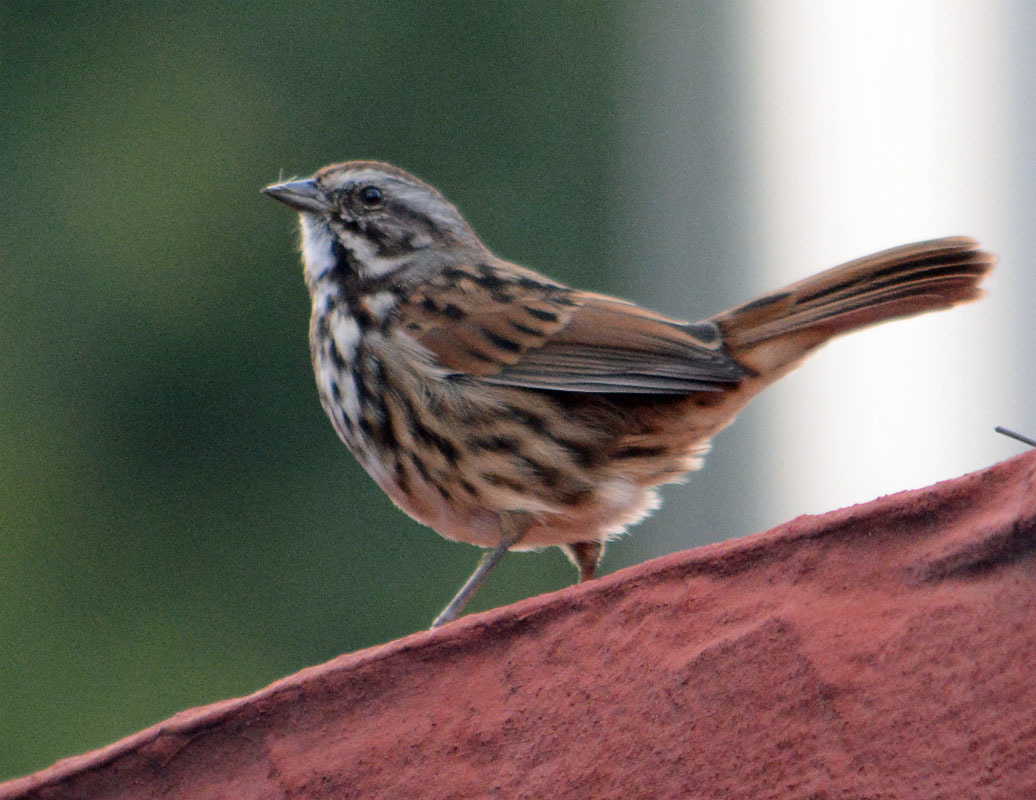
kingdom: Animalia
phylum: Chordata
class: Aves
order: Passeriformes
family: Passerellidae
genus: Melospiza
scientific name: Melospiza melodia
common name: Song sparrow
